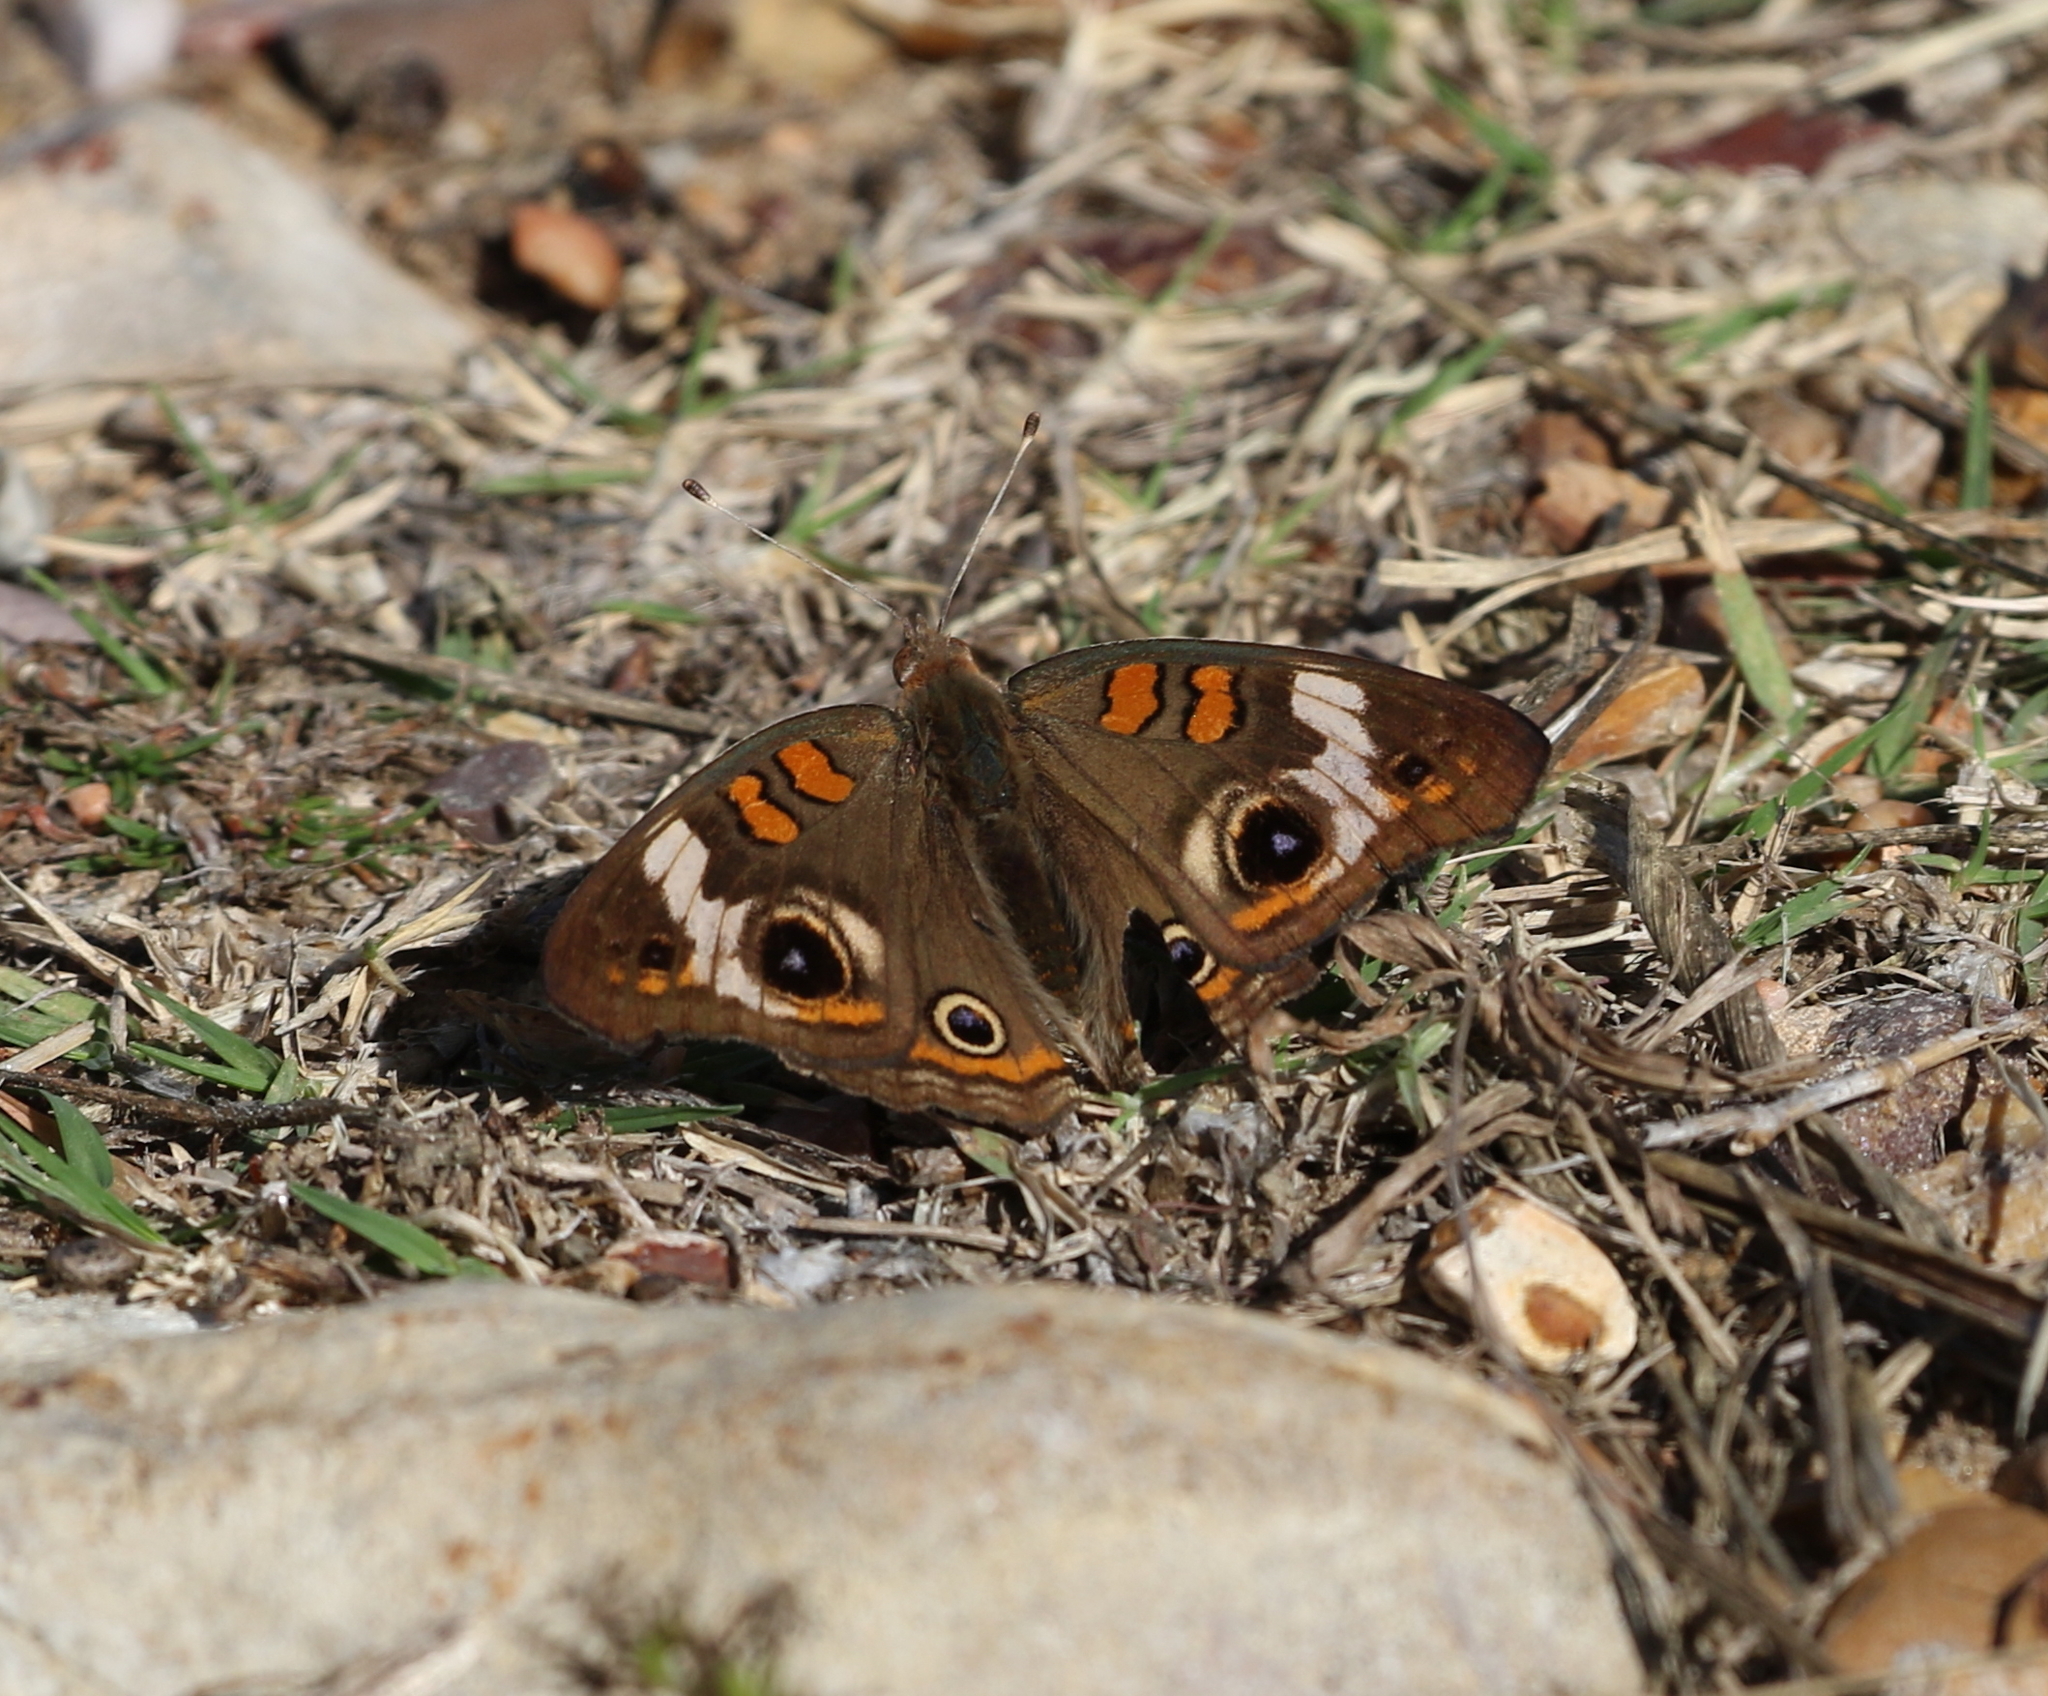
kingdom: Animalia
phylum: Arthropoda
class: Insecta
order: Lepidoptera
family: Nymphalidae
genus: Junonia
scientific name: Junonia coenia
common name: Common buckeye
